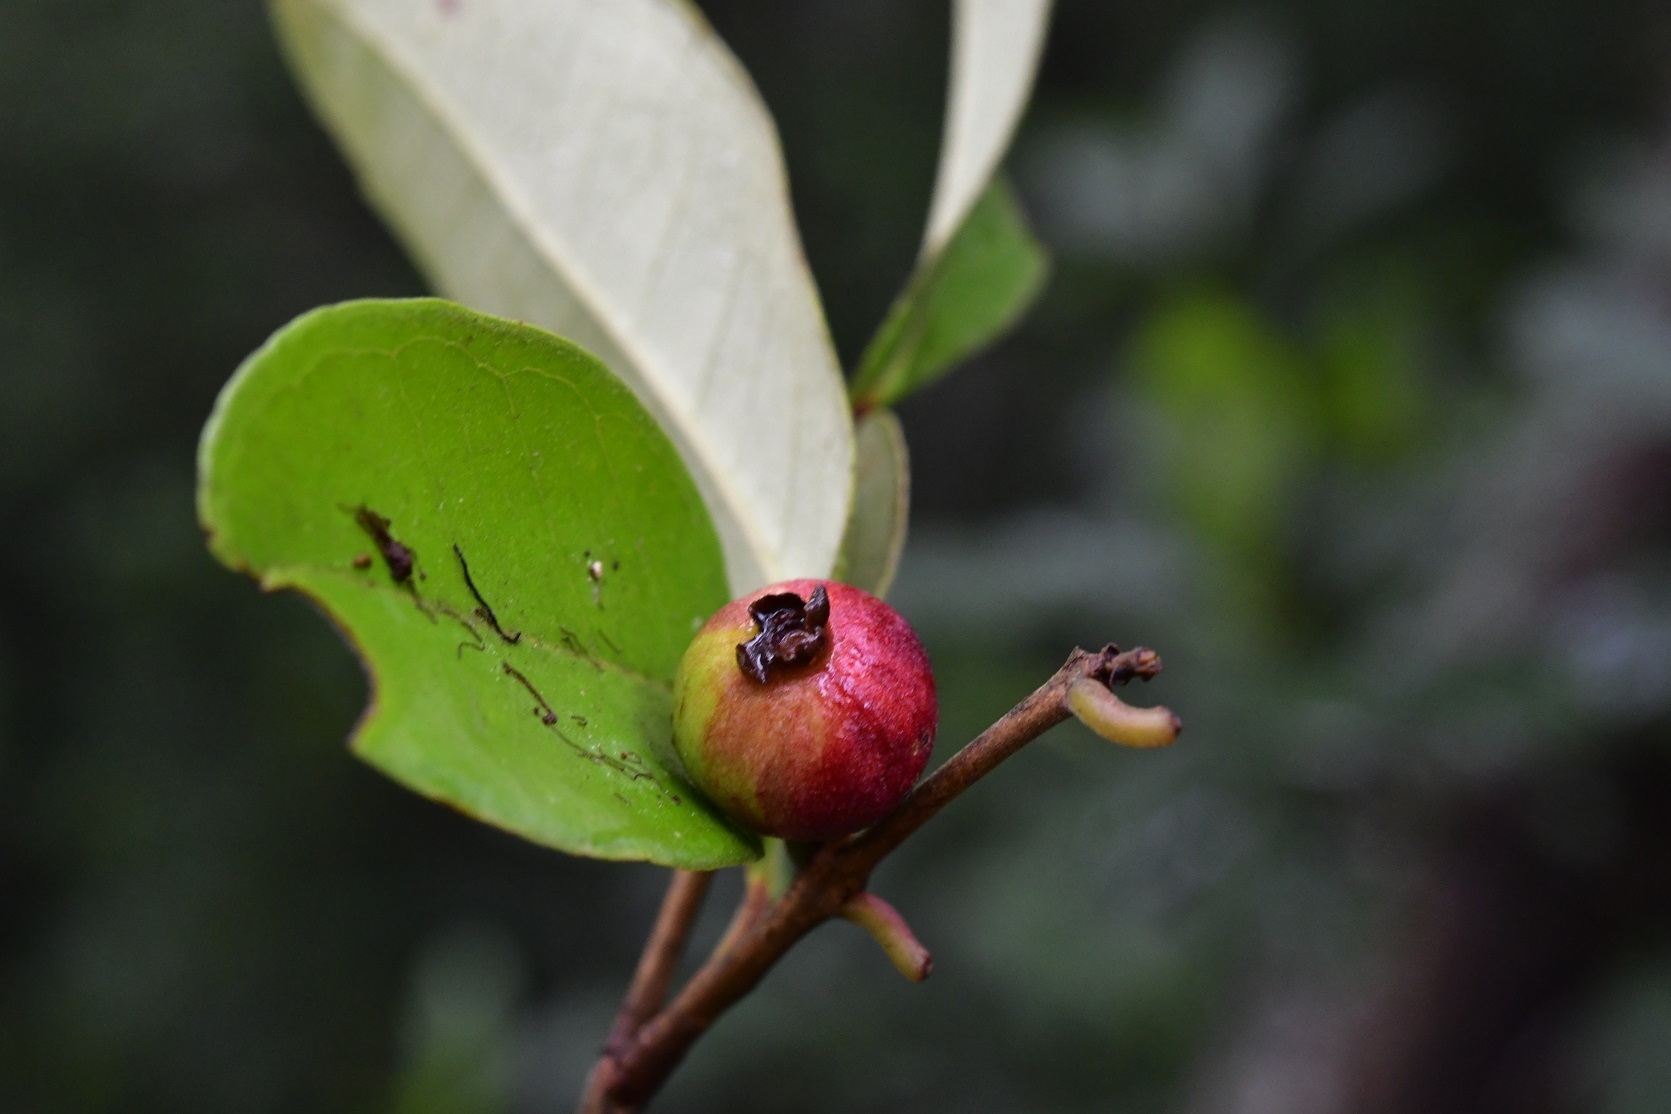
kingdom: Plantae
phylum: Tracheophyta
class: Magnoliopsida
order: Myrtales
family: Myrtaceae
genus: Eugenia
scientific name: Eugenia capulioides
